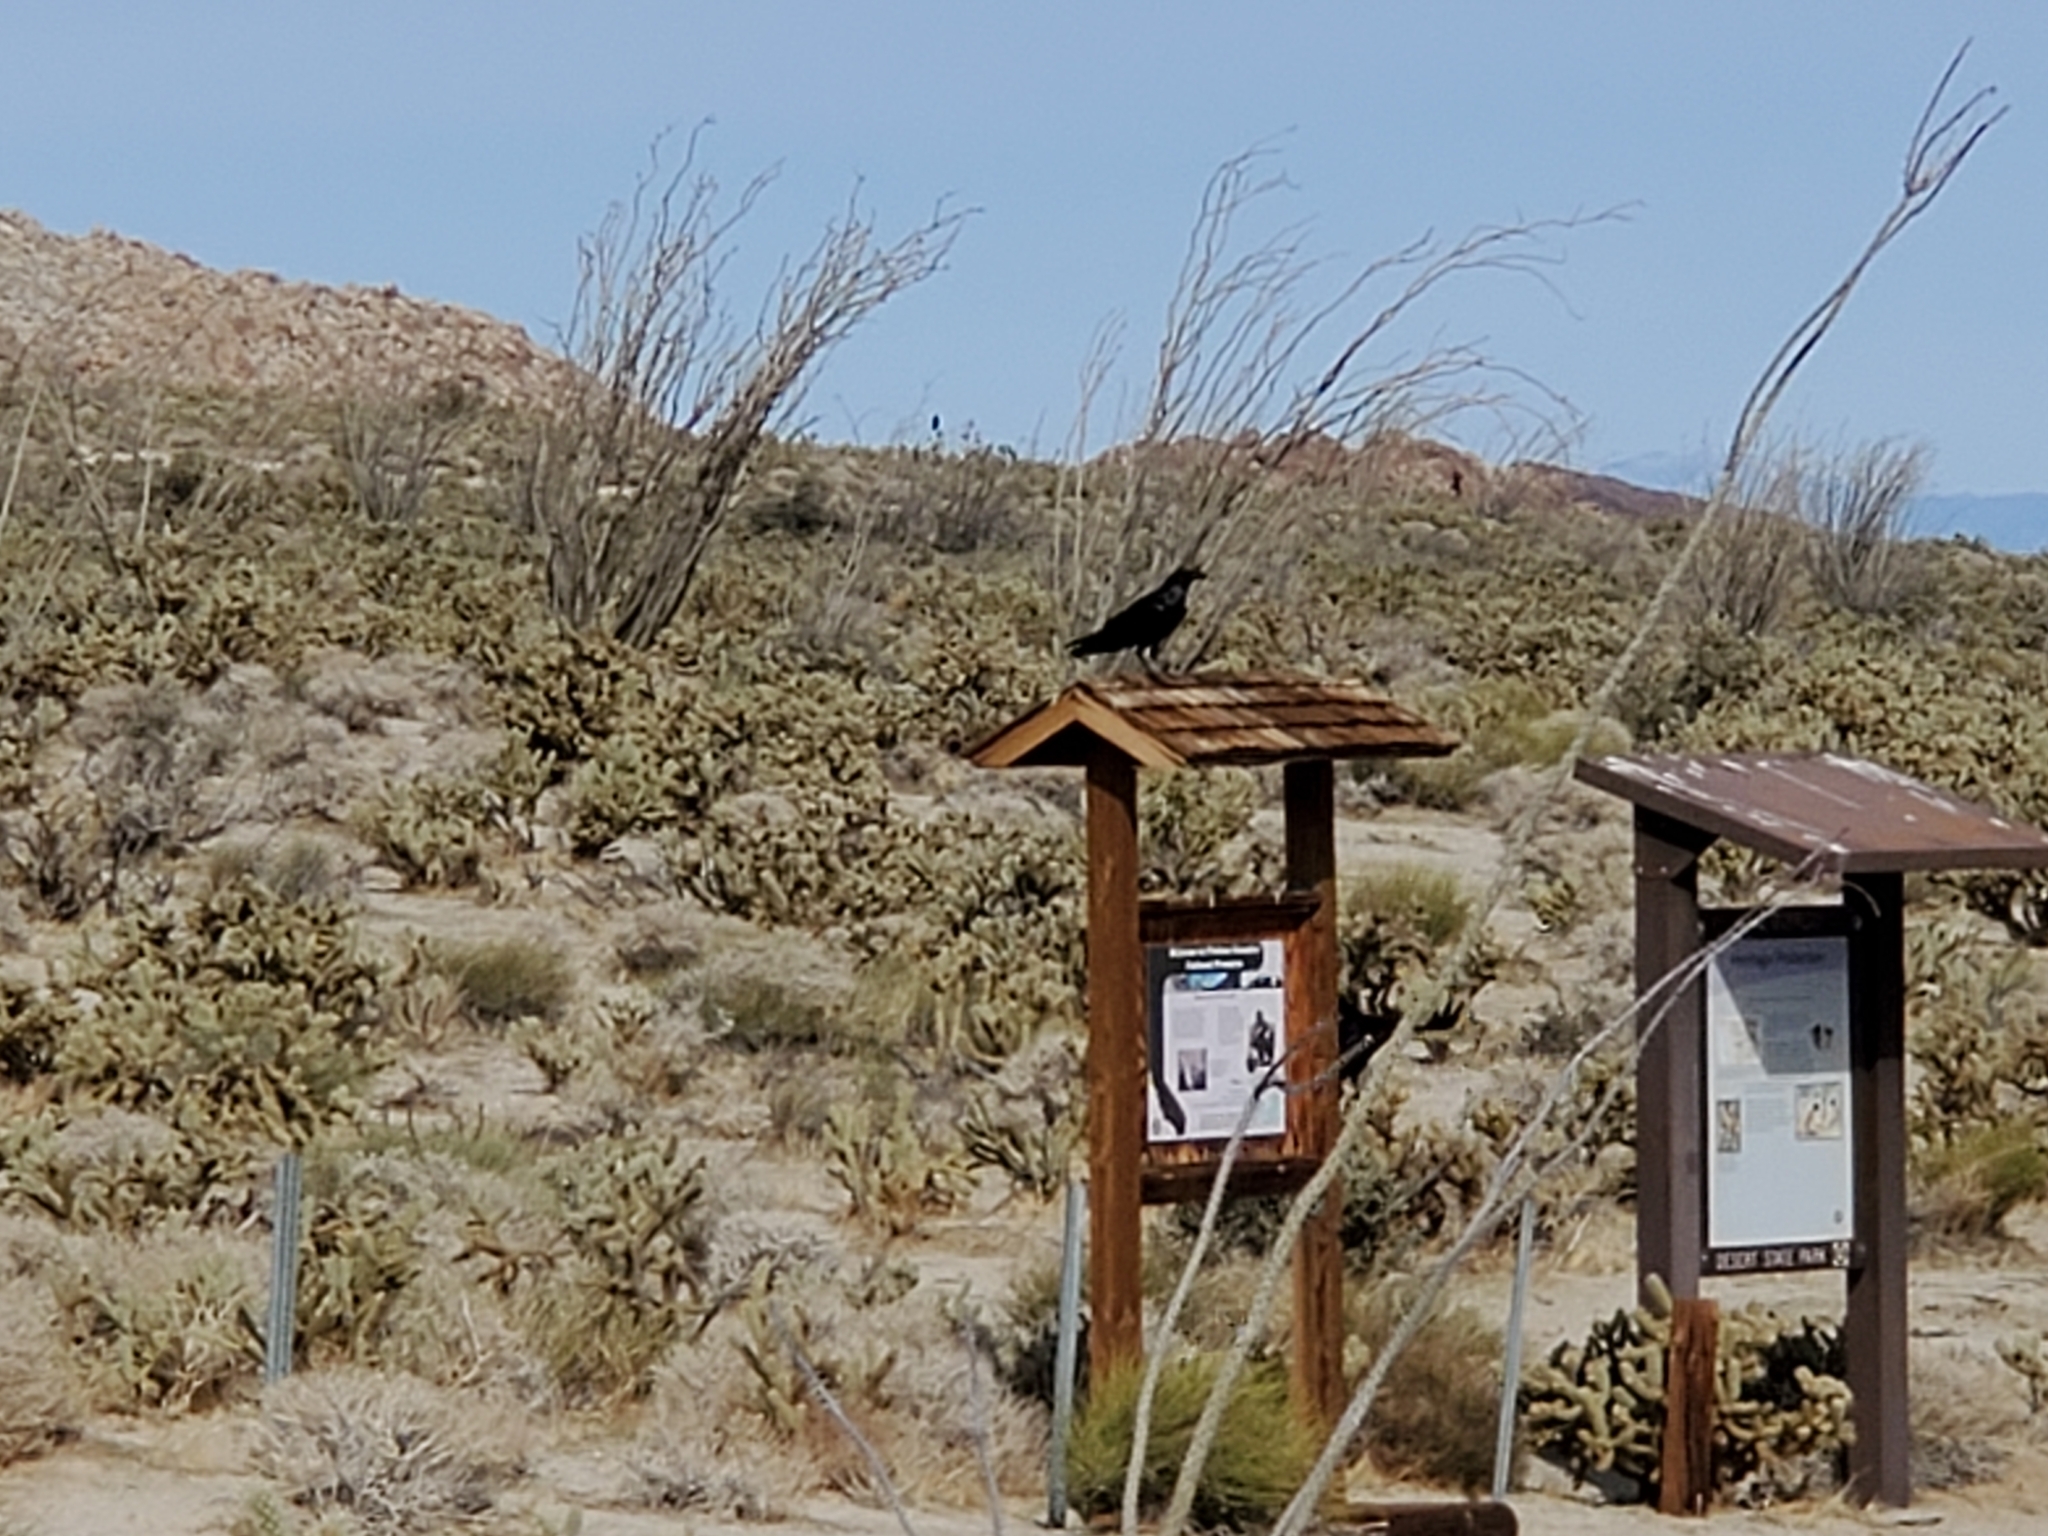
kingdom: Animalia
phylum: Chordata
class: Aves
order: Passeriformes
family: Corvidae
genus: Corvus
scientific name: Corvus corax
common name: Common raven
